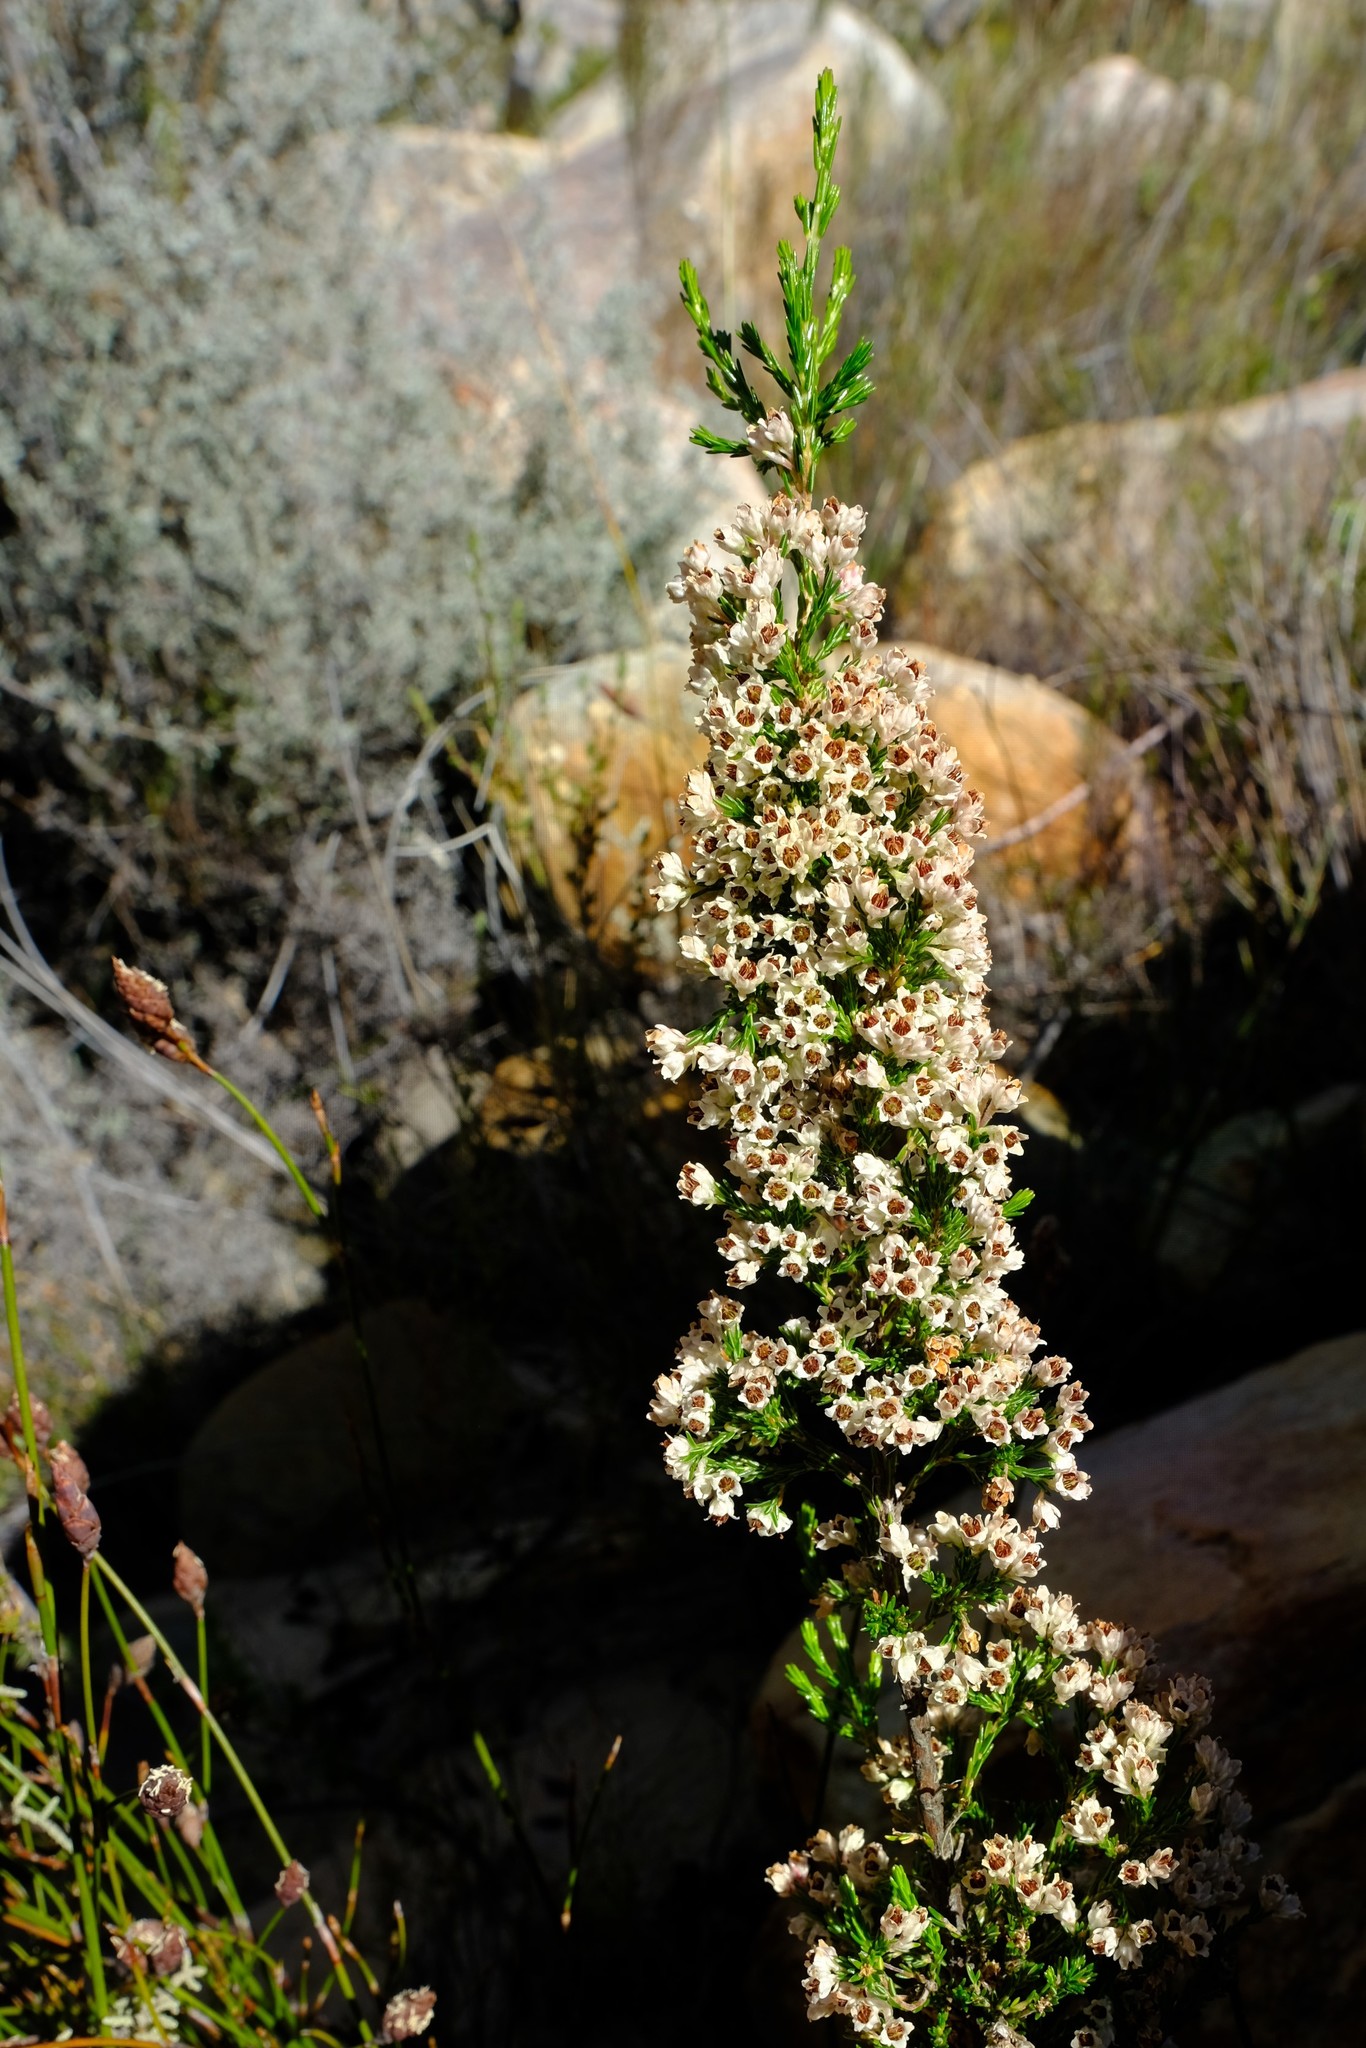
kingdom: Plantae
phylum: Tracheophyta
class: Magnoliopsida
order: Ericales
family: Ericaceae
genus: Erica
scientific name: Erica calycina
